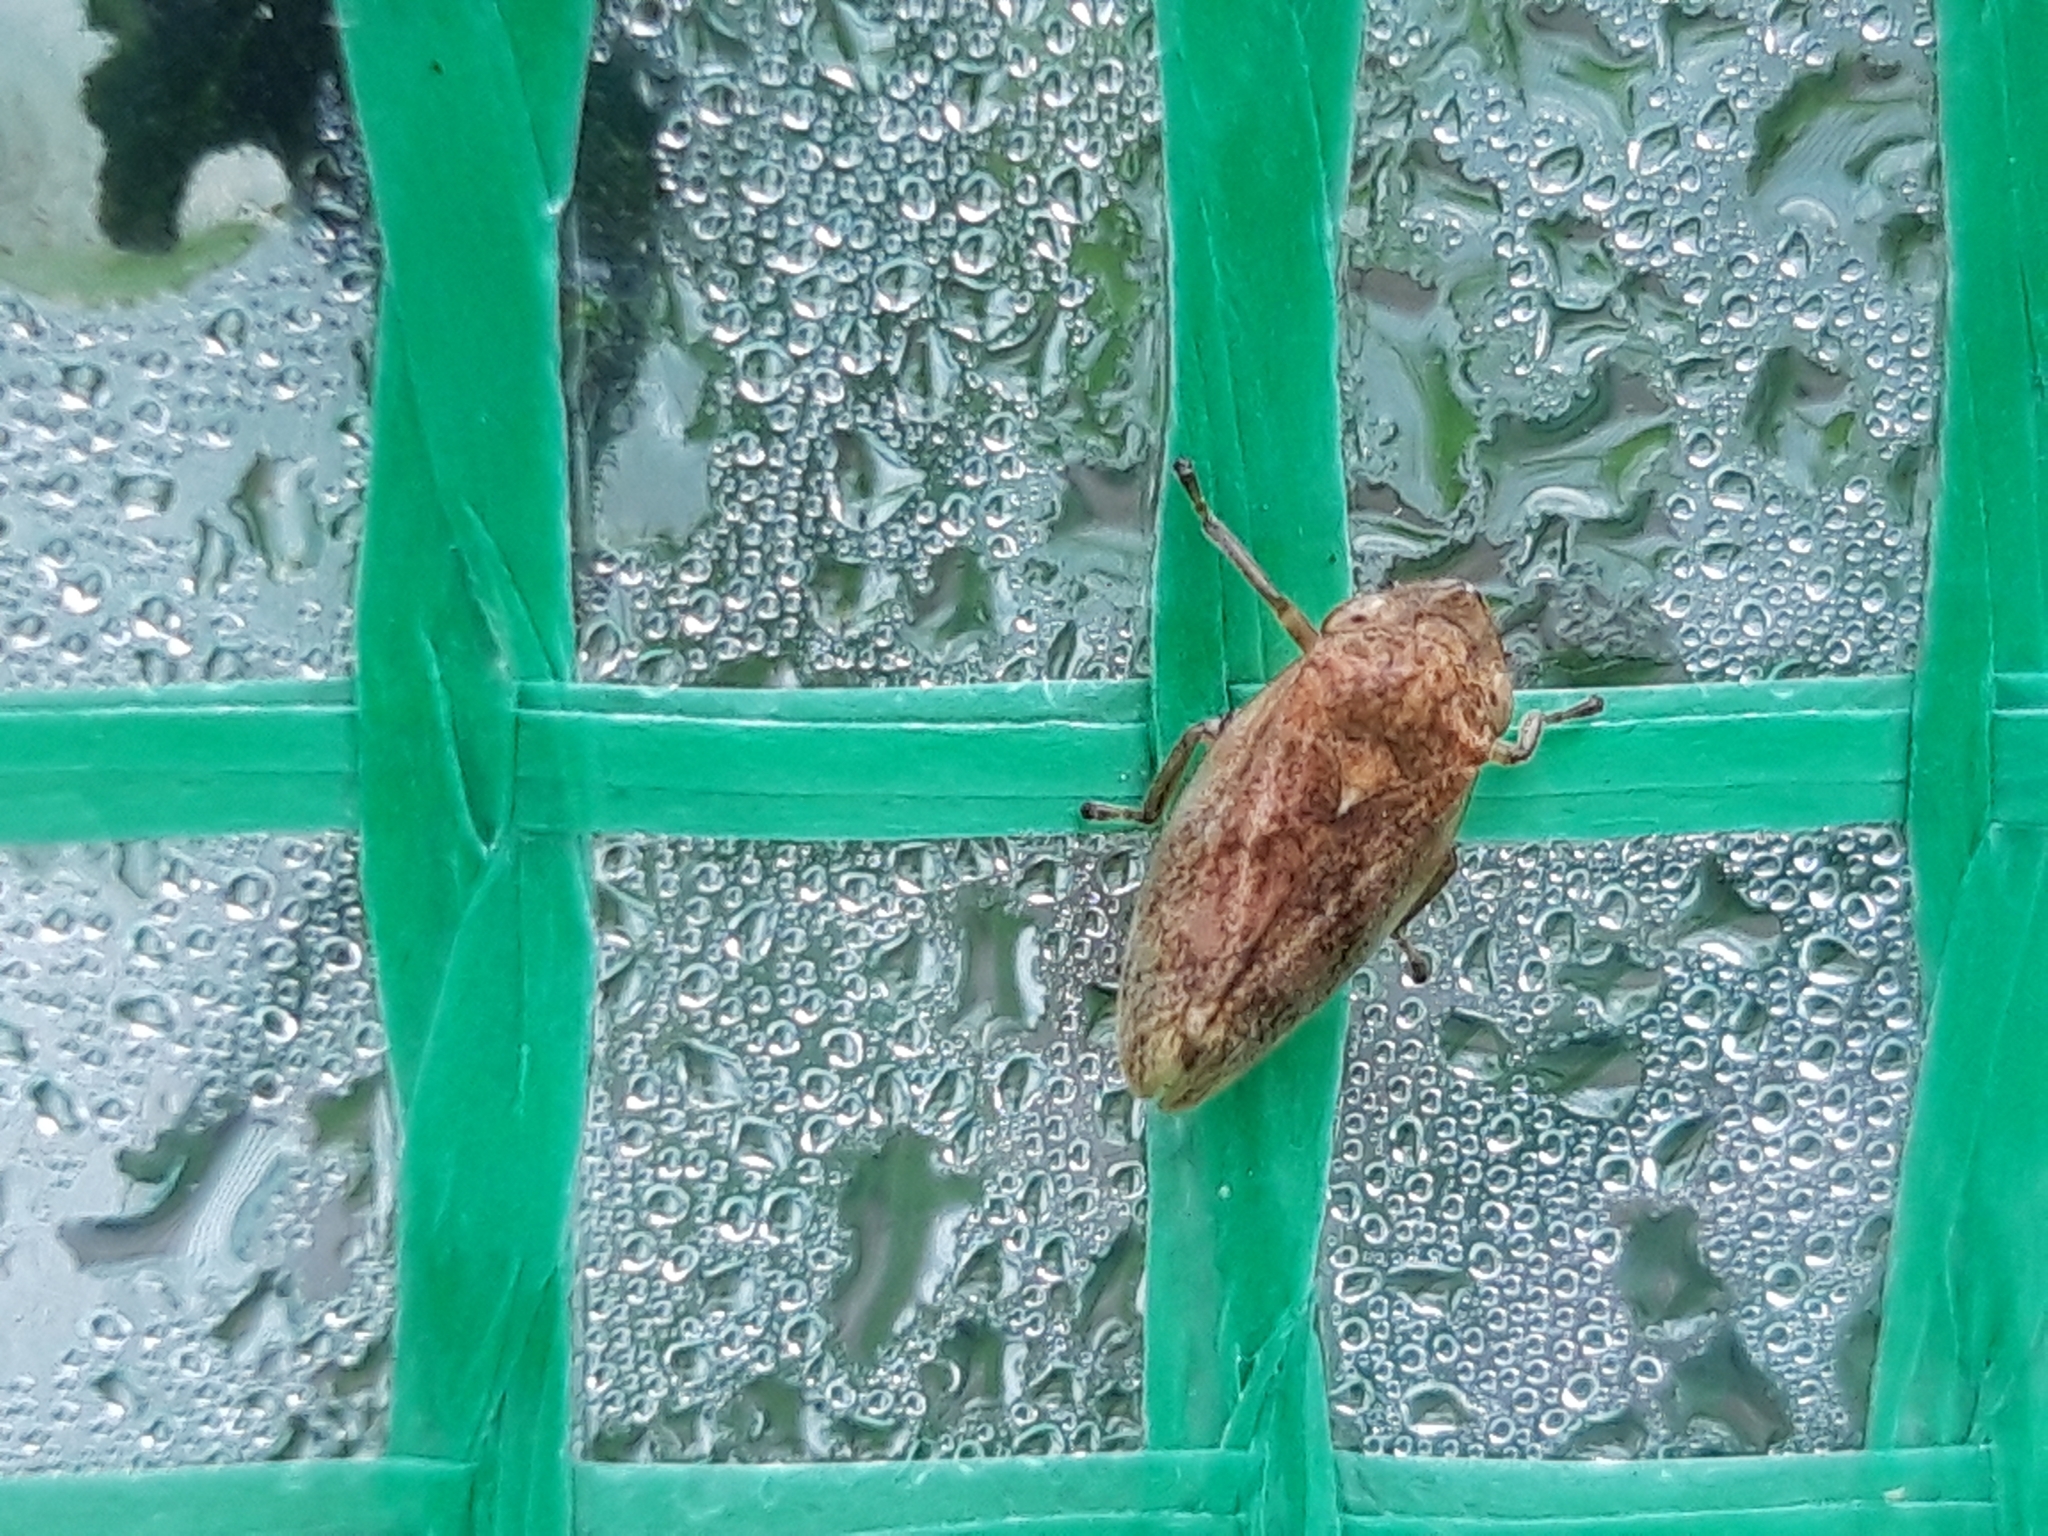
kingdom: Animalia
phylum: Arthropoda
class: Insecta
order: Hemiptera
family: Aphrophoridae
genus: Philaenus
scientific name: Philaenus spumarius
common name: Meadow spittlebug
